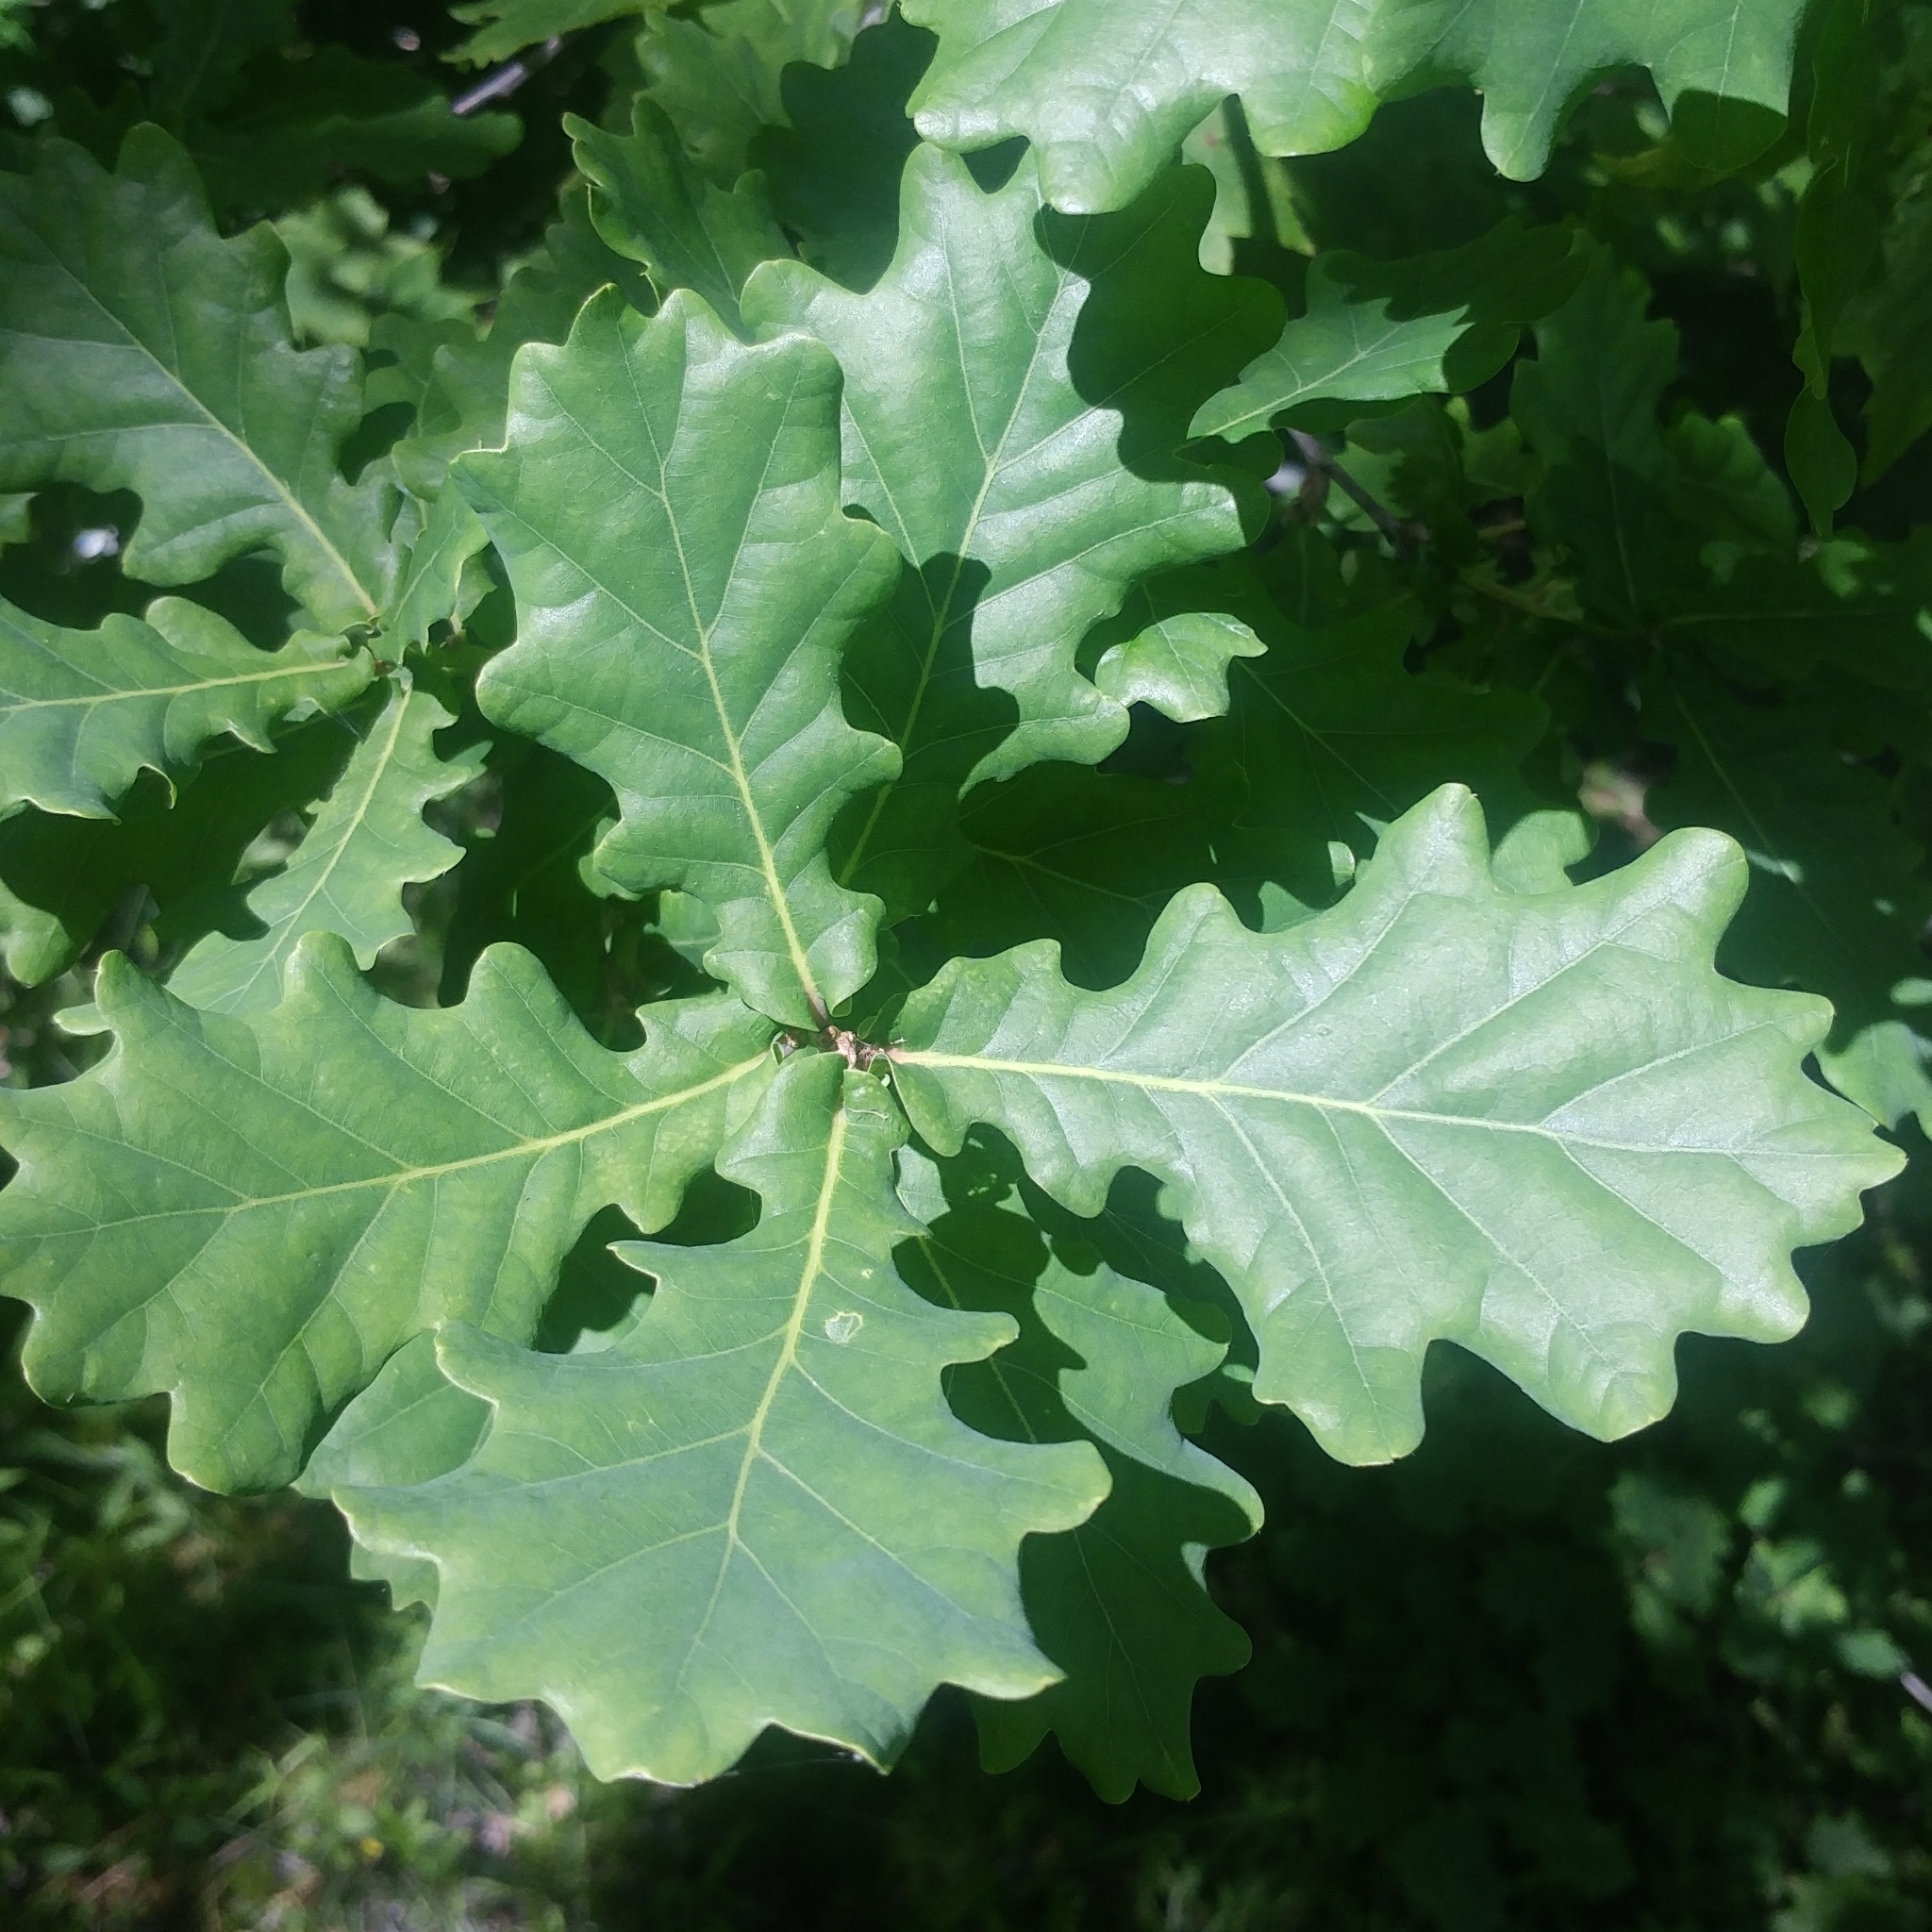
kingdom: Plantae
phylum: Tracheophyta
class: Magnoliopsida
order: Fagales
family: Fagaceae
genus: Quercus
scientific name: Quercus robur
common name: Pedunculate oak
